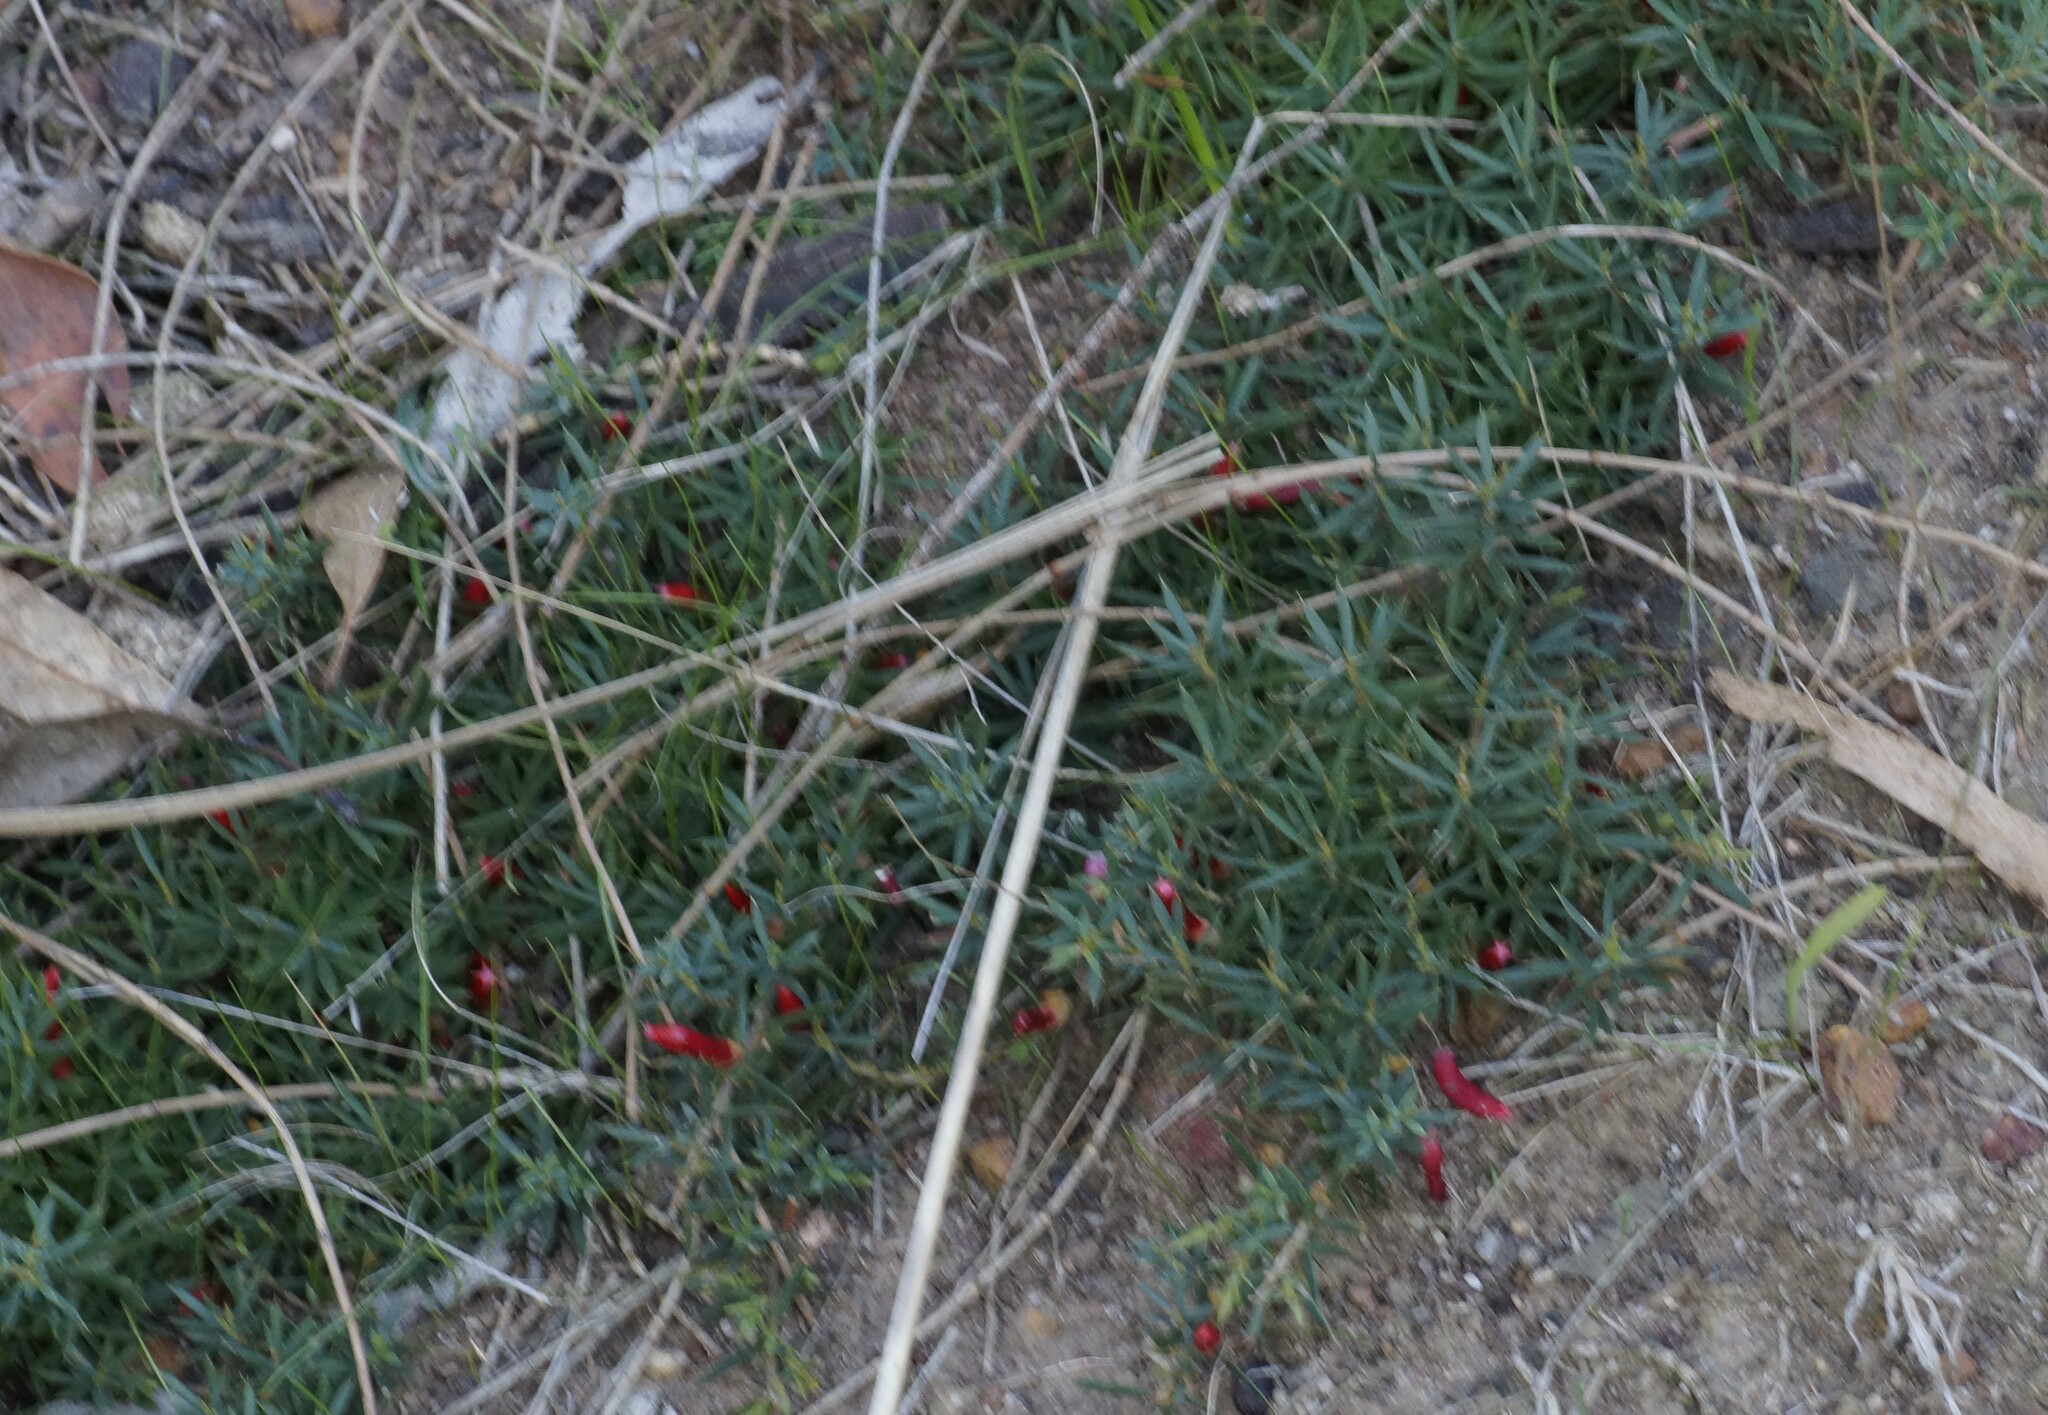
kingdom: Plantae
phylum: Tracheophyta
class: Magnoliopsida
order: Ericales
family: Ericaceae
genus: Styphelia
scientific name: Styphelia humifusa
